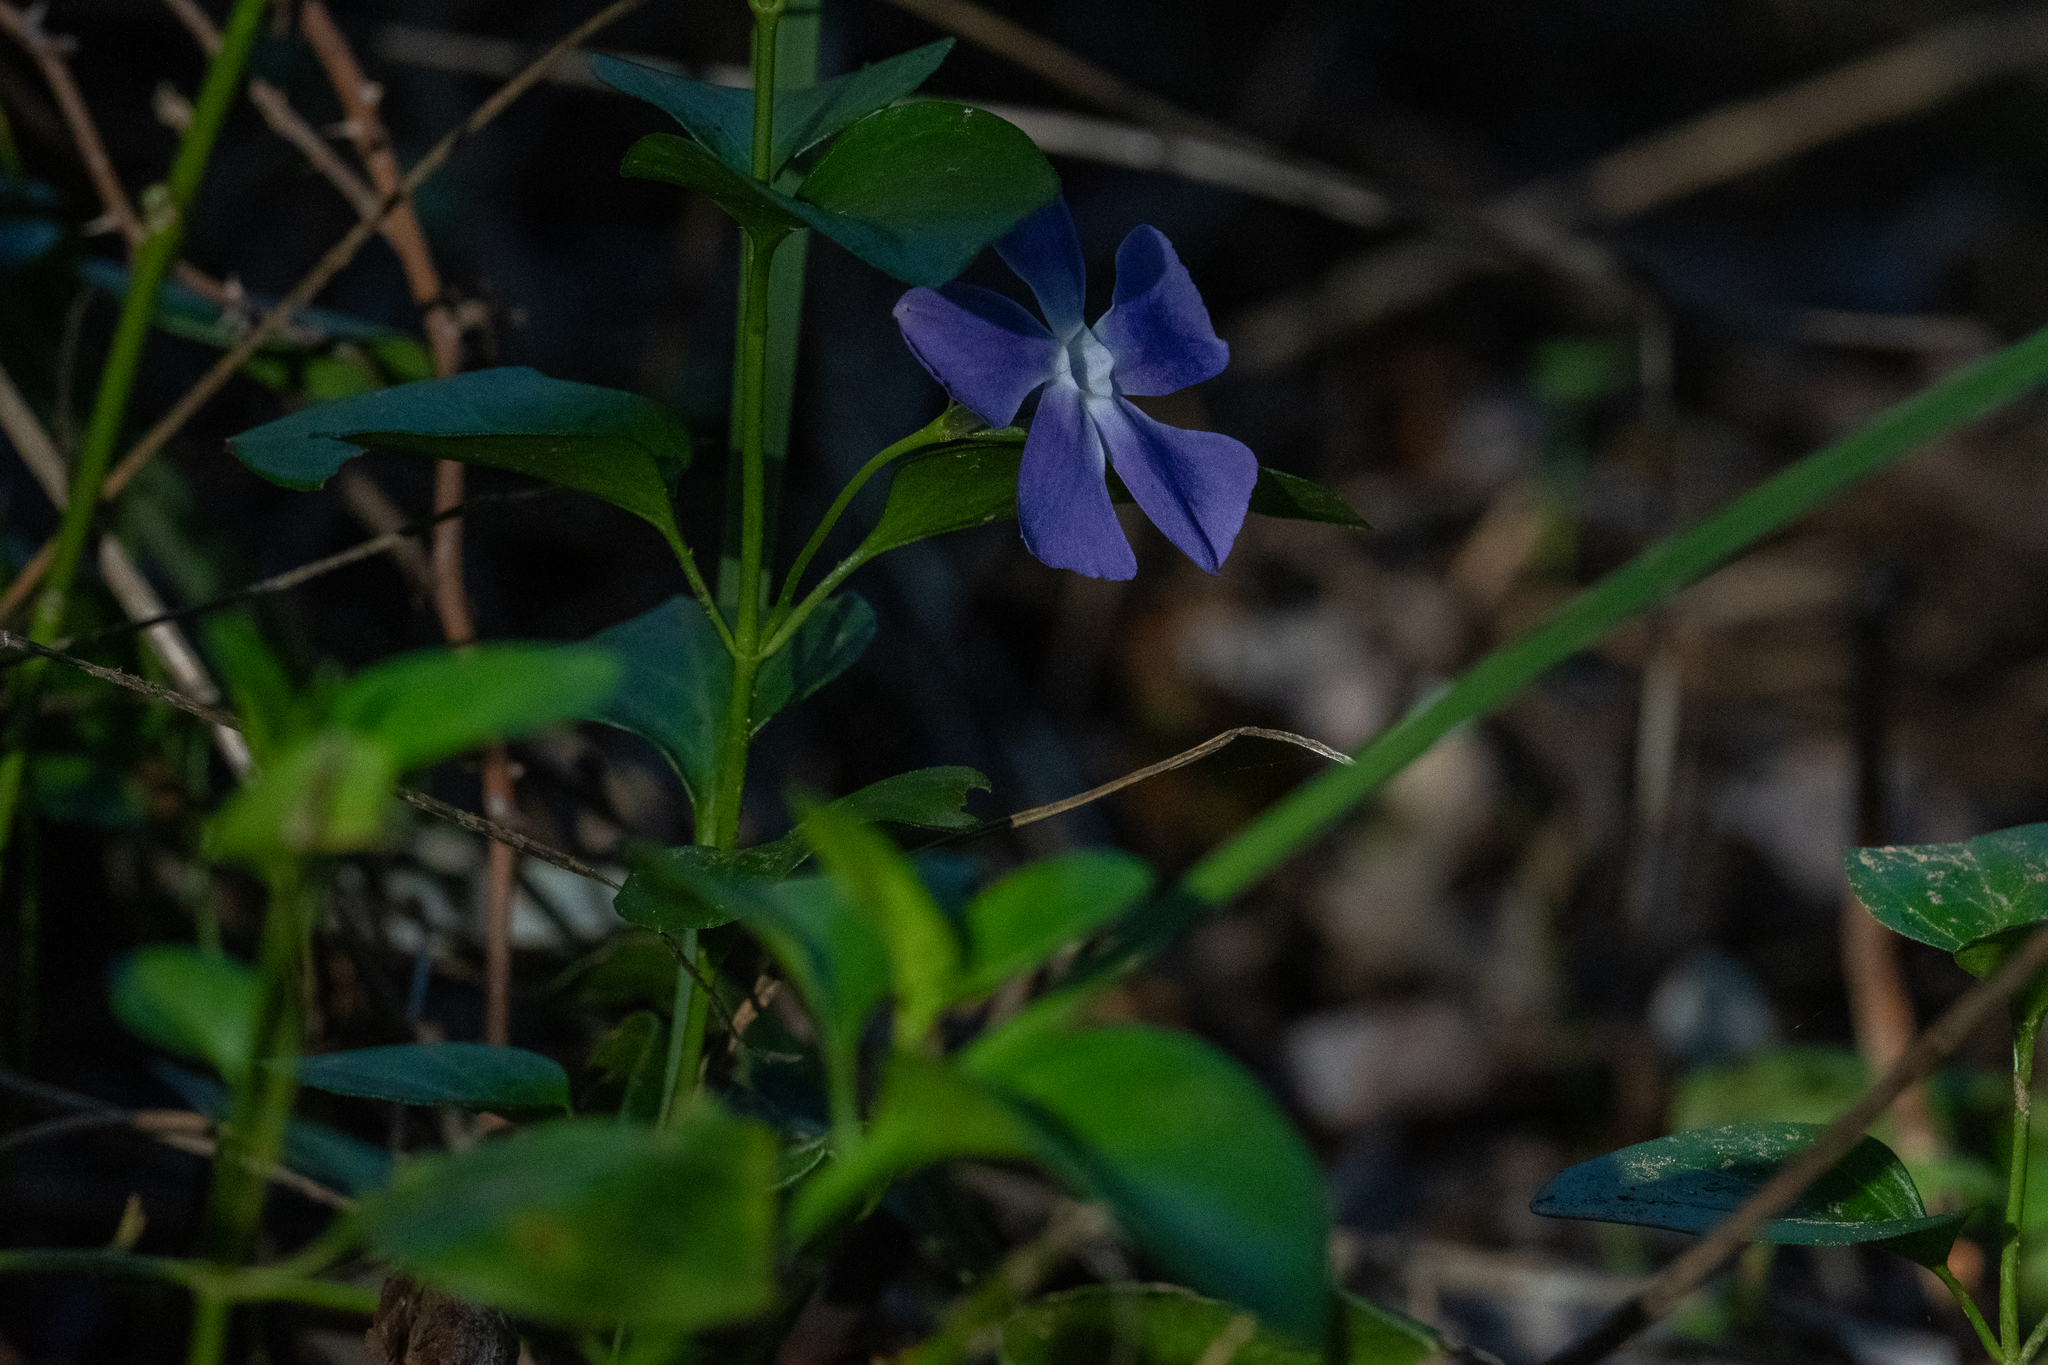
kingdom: Plantae
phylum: Tracheophyta
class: Magnoliopsida
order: Gentianales
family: Apocynaceae
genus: Vinca
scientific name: Vinca major
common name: Greater periwinkle
